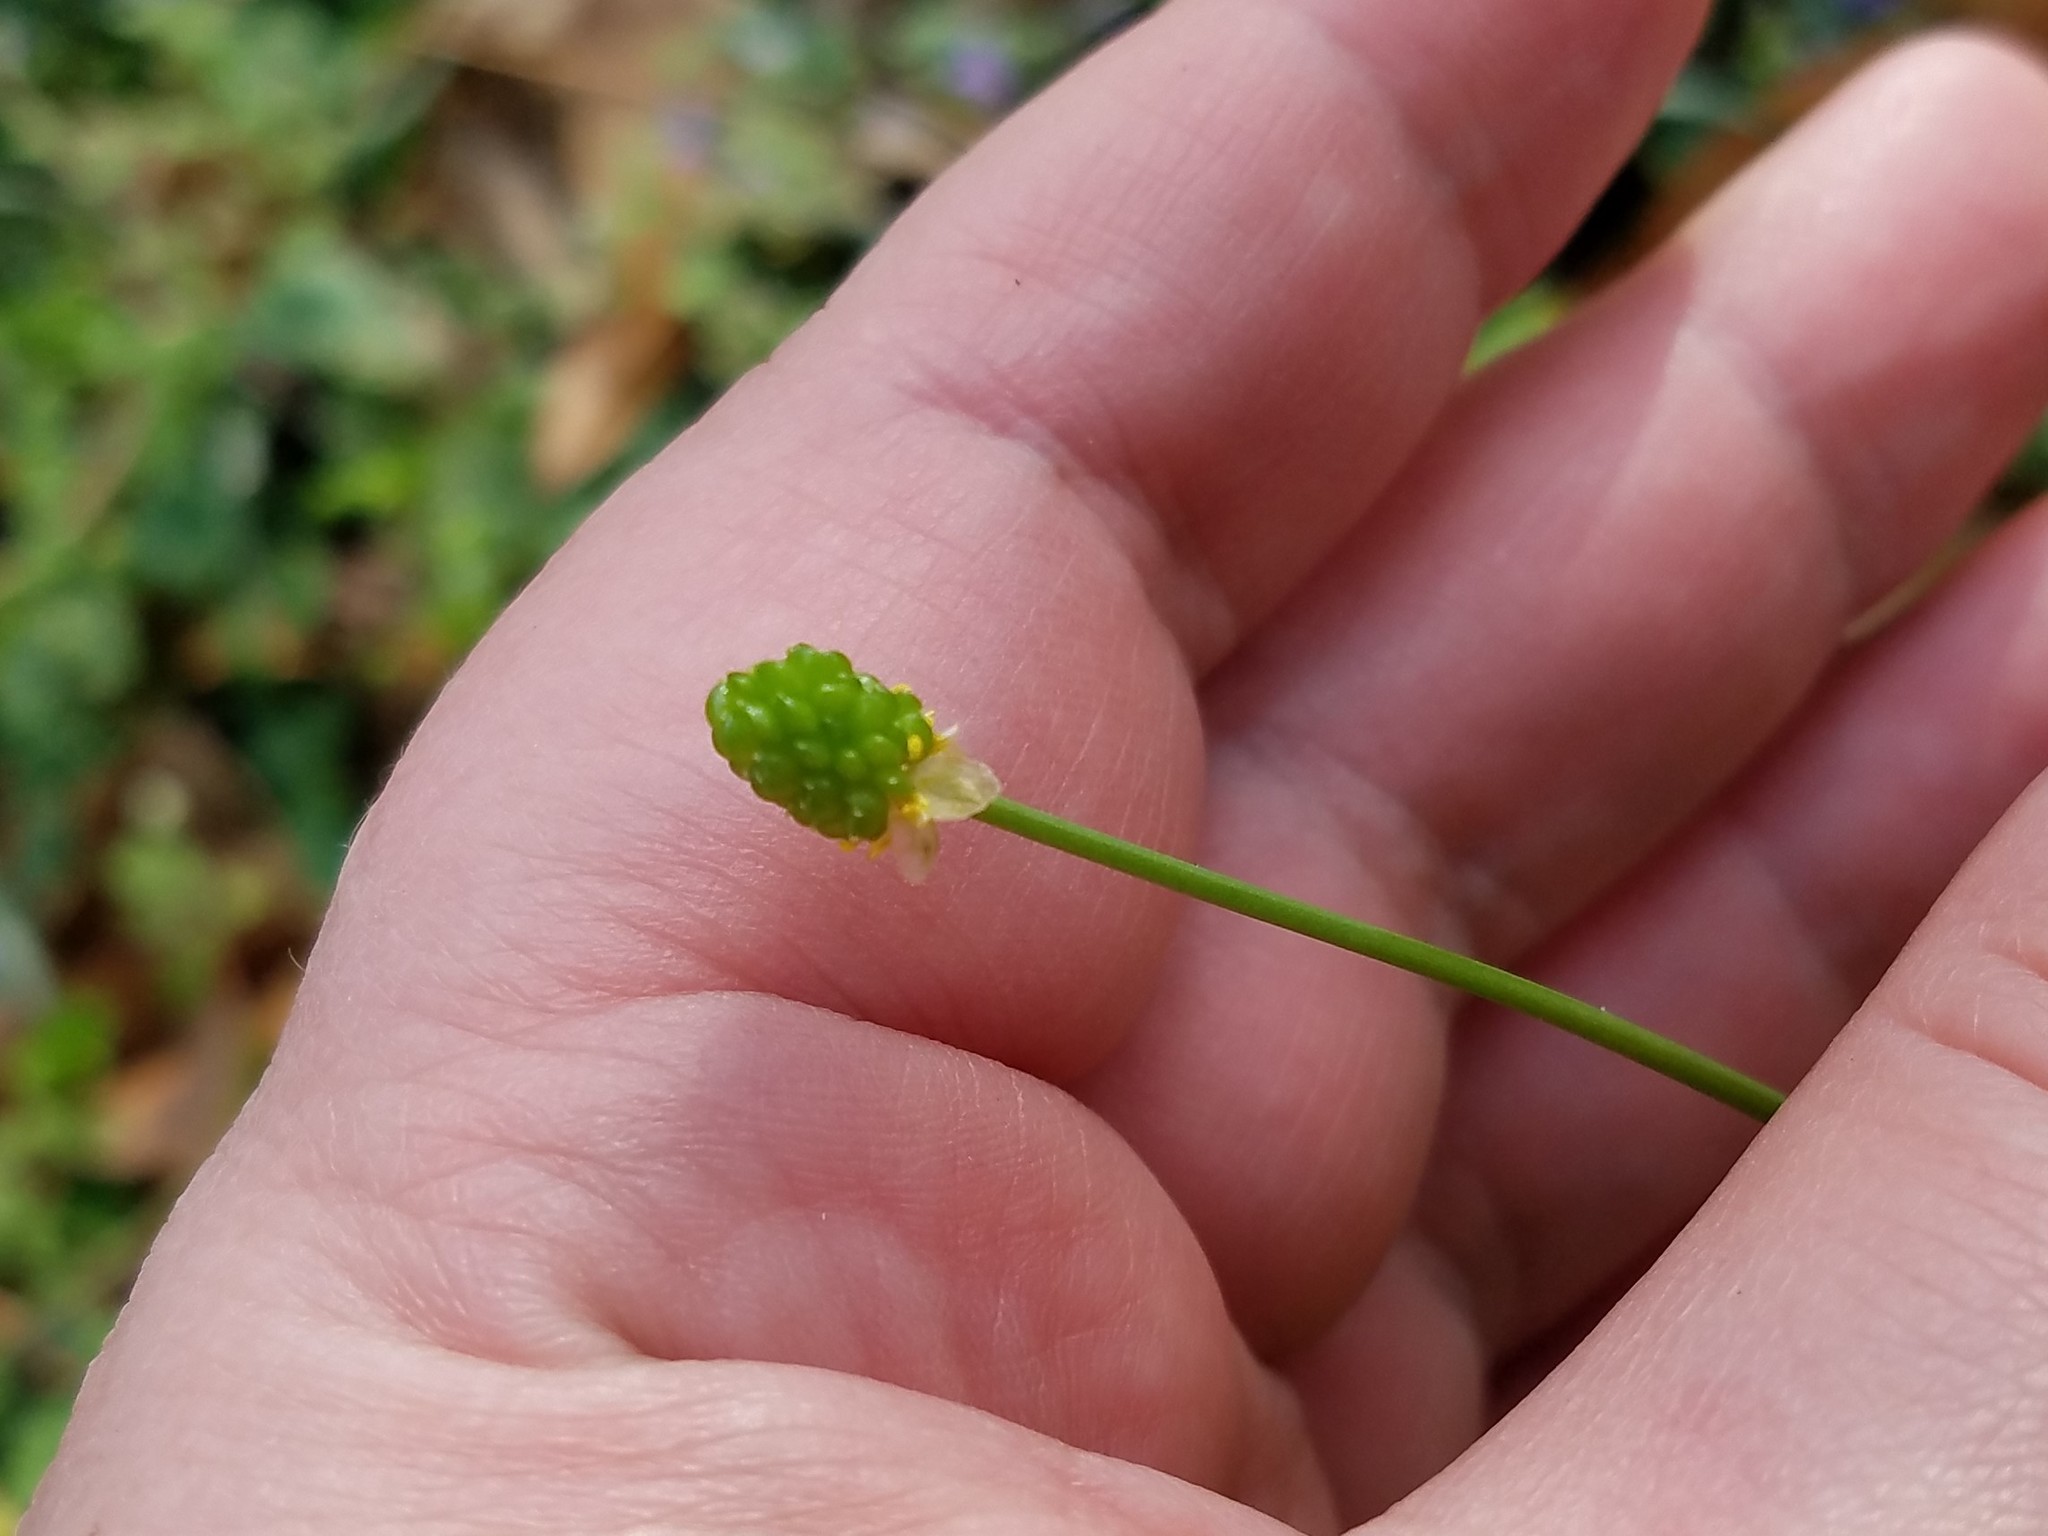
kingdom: Plantae
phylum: Tracheophyta
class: Magnoliopsida
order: Ranunculales
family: Ranunculaceae
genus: Ranunculus
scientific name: Ranunculus abortivus
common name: Early wood buttercup
